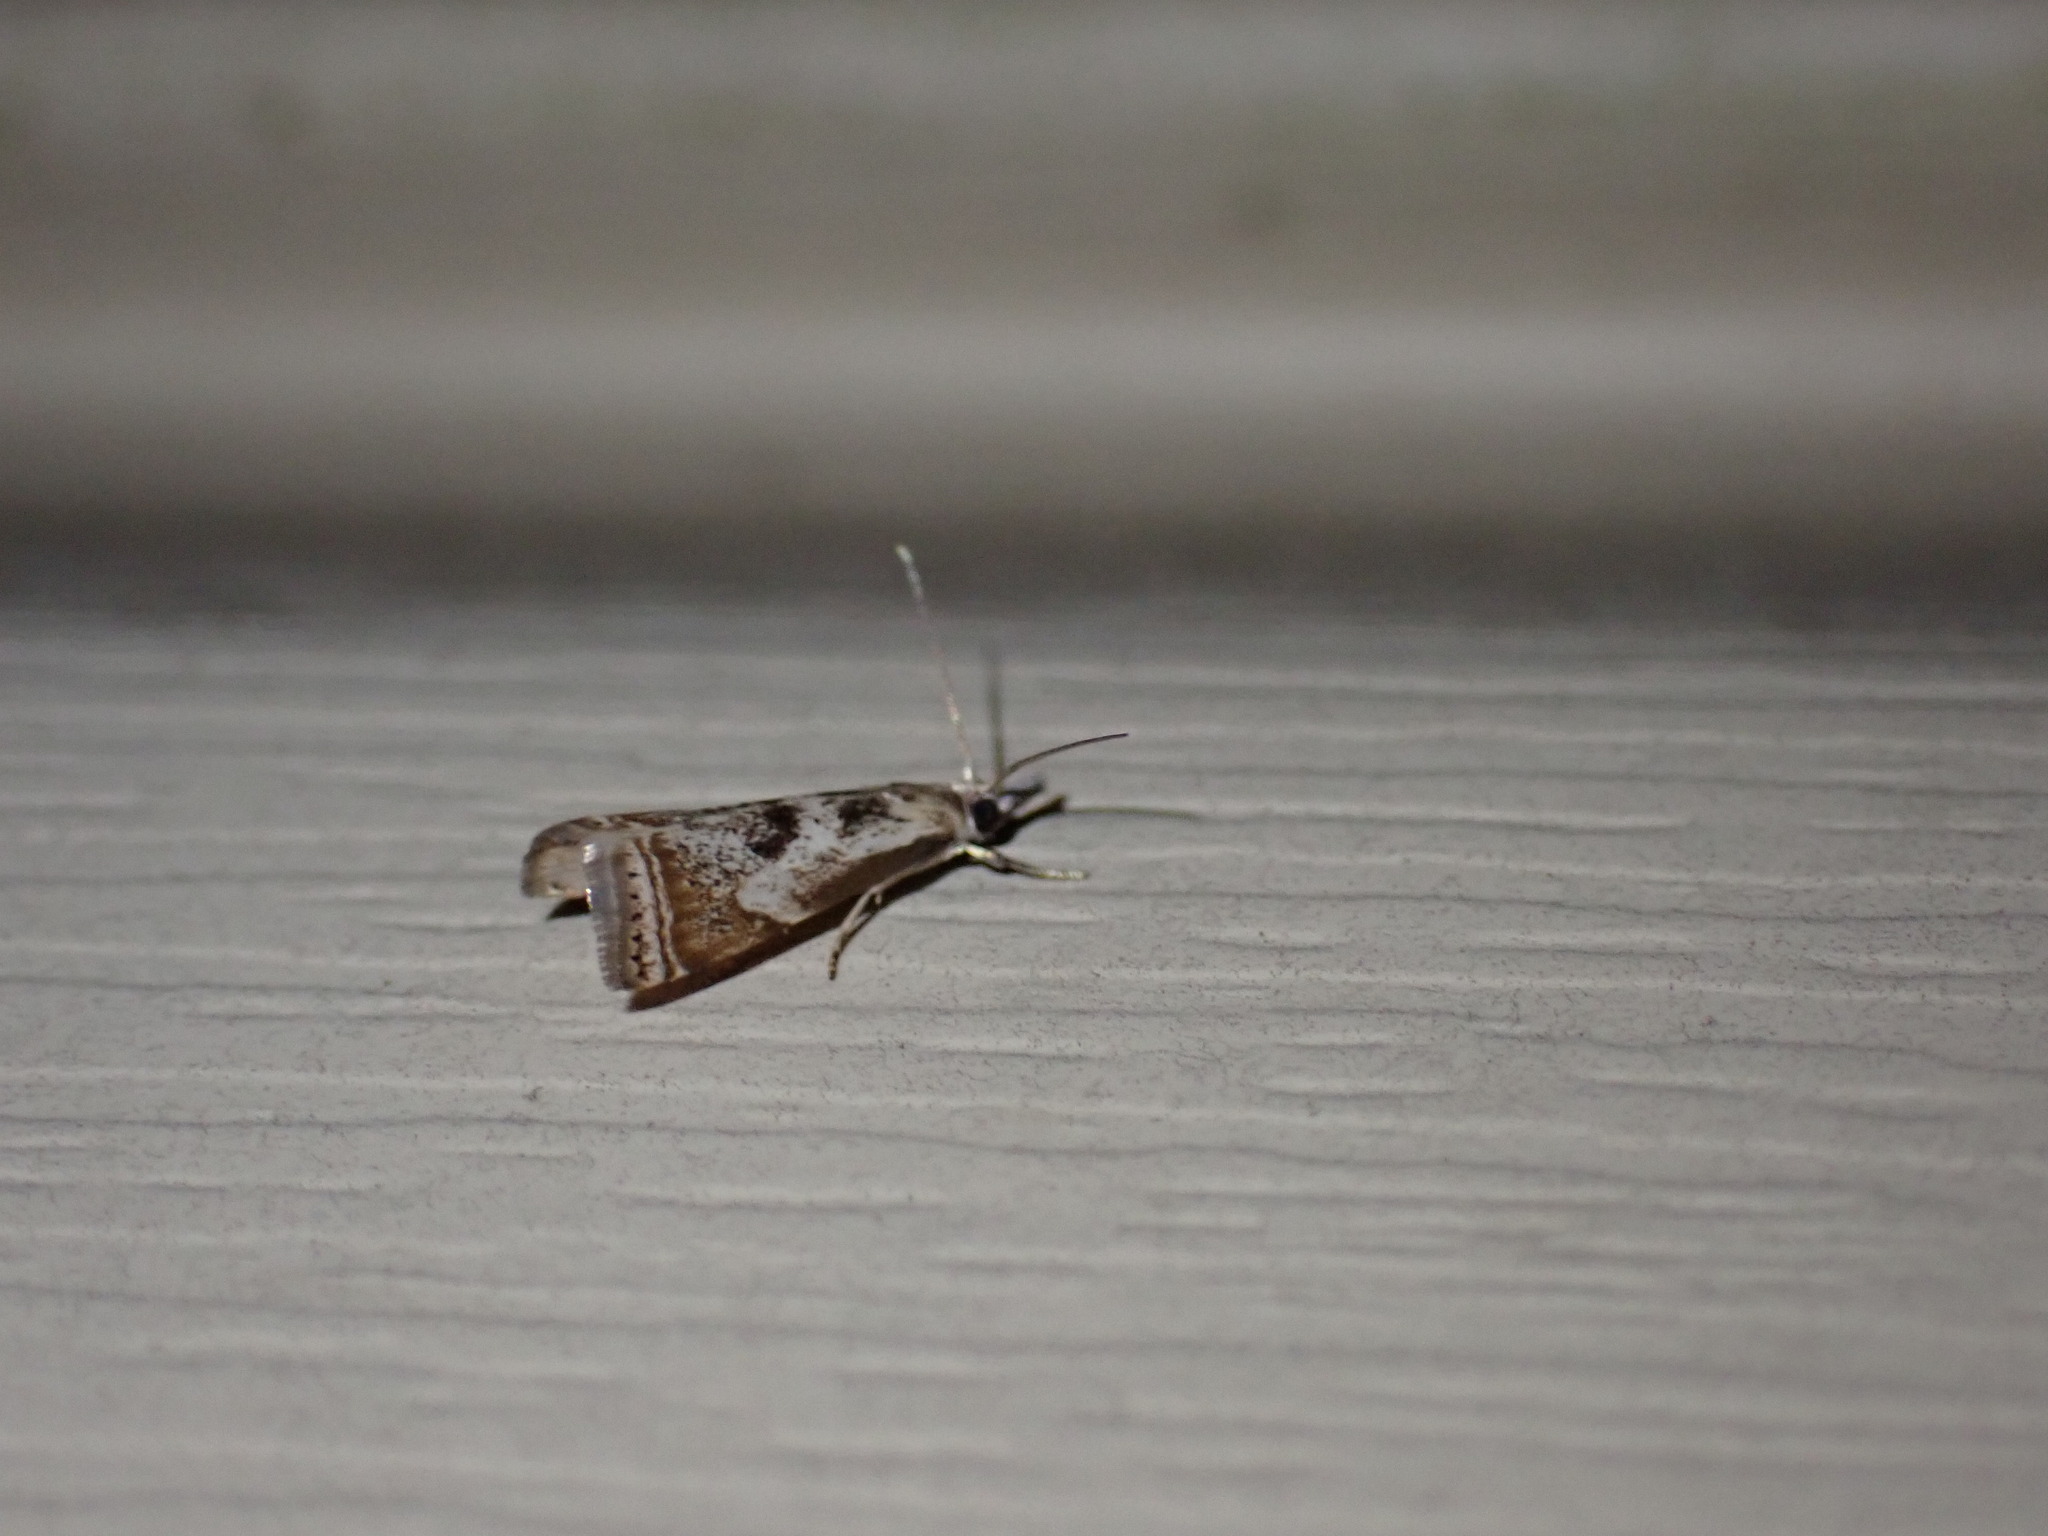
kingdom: Animalia
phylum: Arthropoda
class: Insecta
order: Lepidoptera
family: Crambidae
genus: Microcrambus
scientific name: Microcrambus elegans
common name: Elegant grass-veneer
